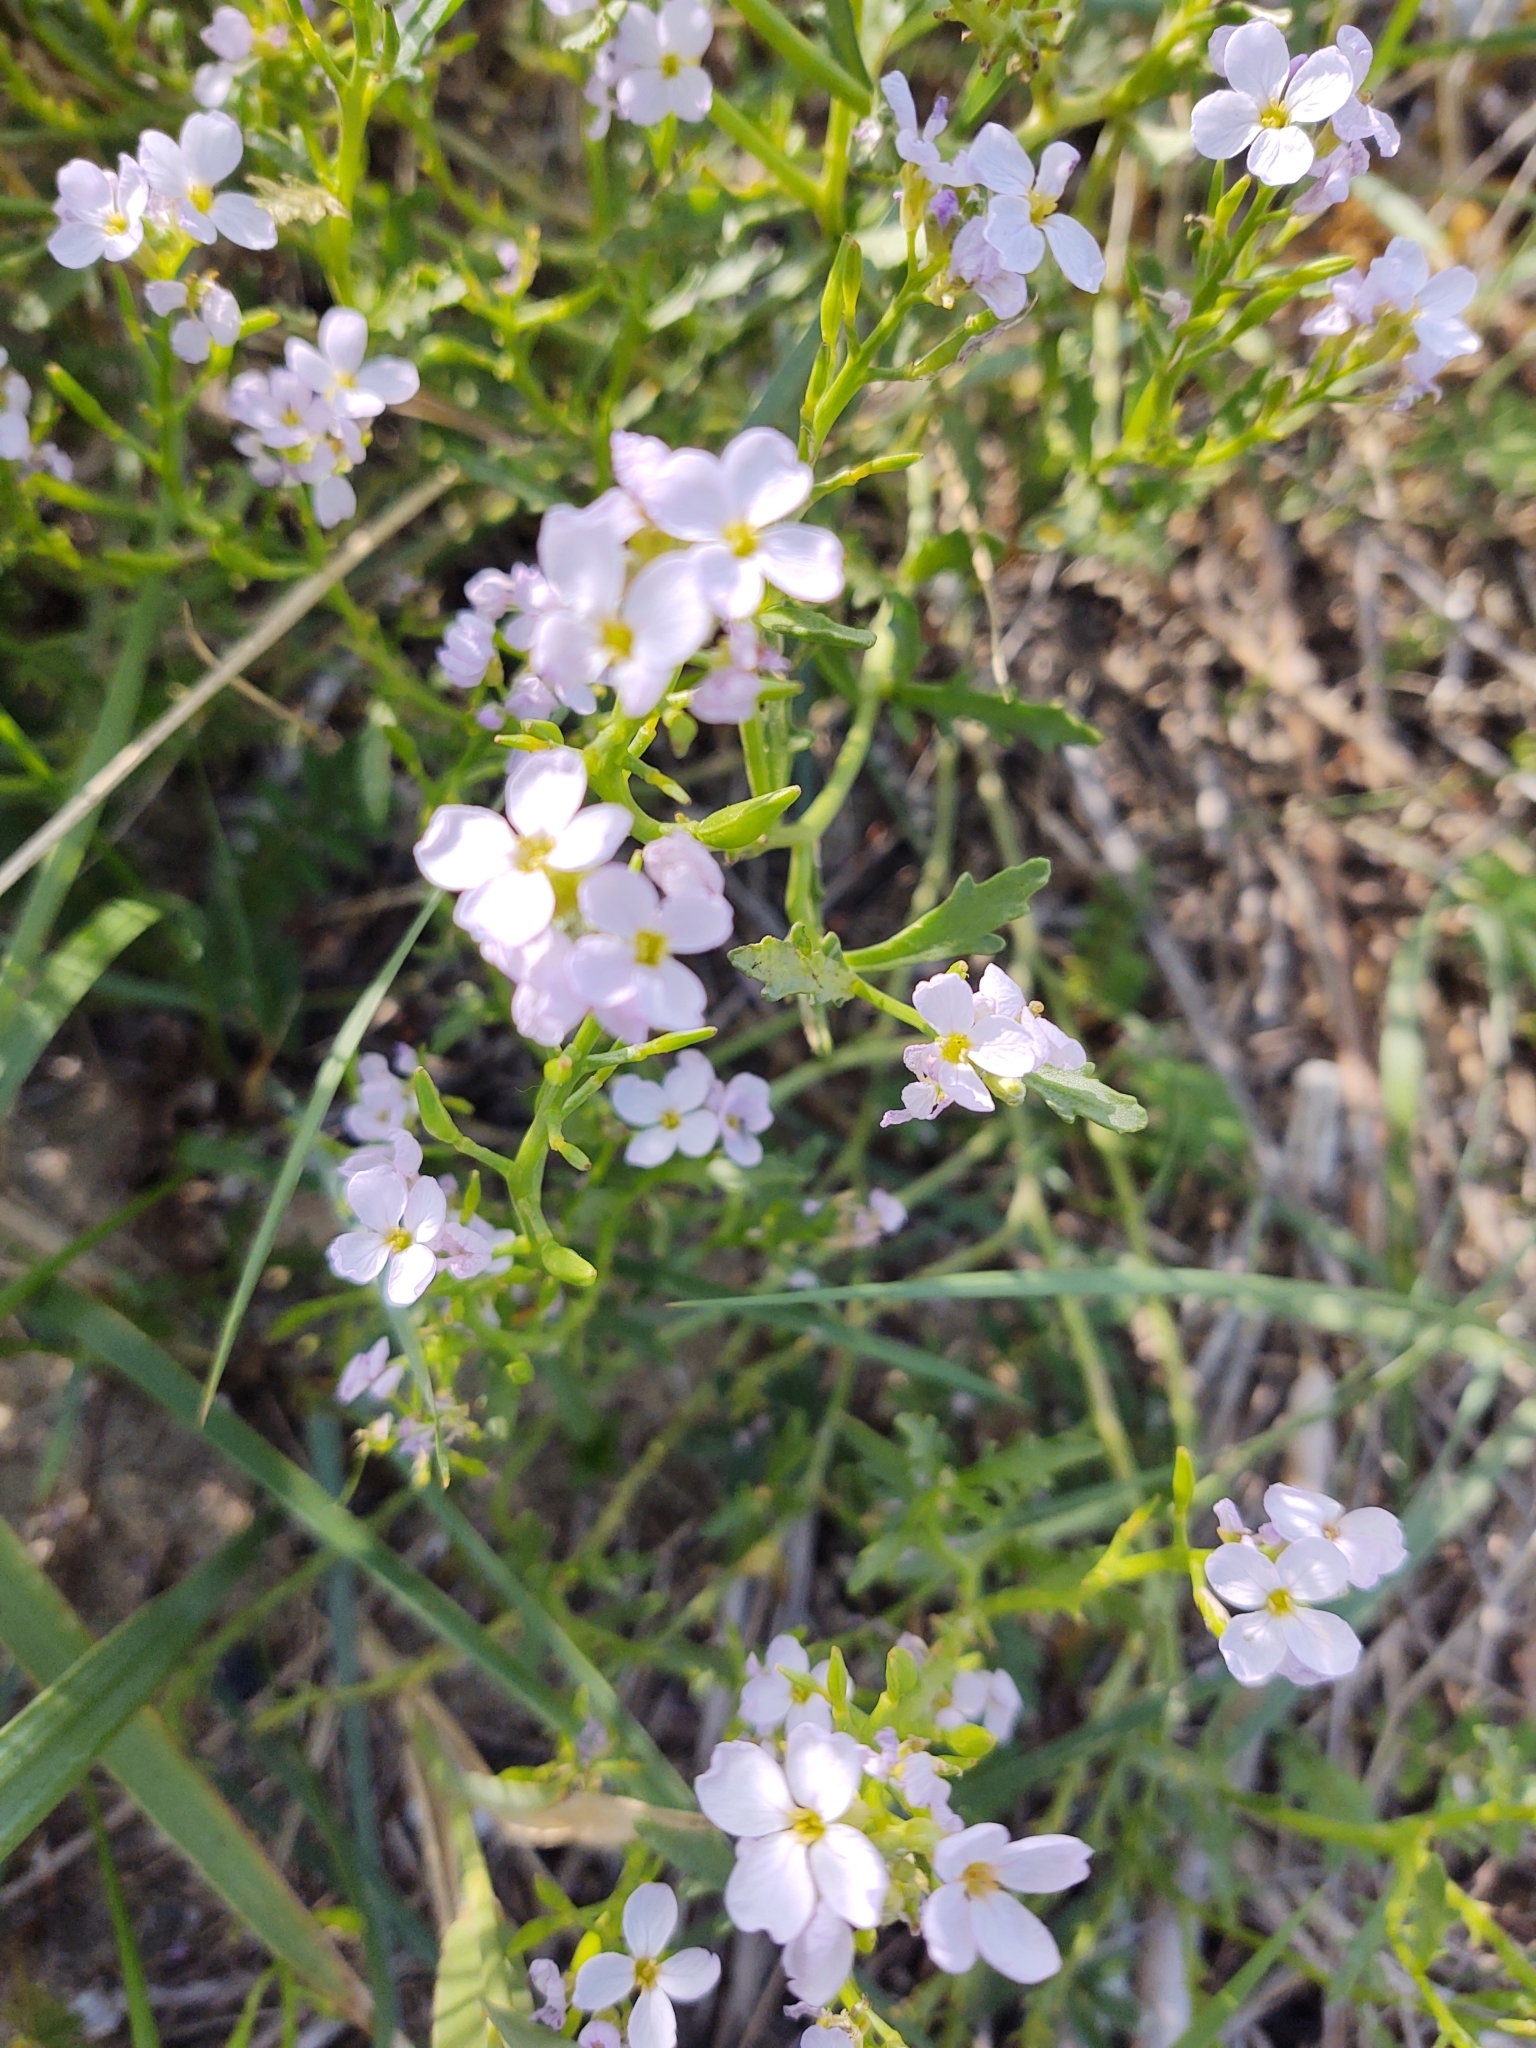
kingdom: Plantae
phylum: Tracheophyta
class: Magnoliopsida
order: Brassicales
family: Brassicaceae
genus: Cakile
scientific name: Cakile maritima
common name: Sea rocket
